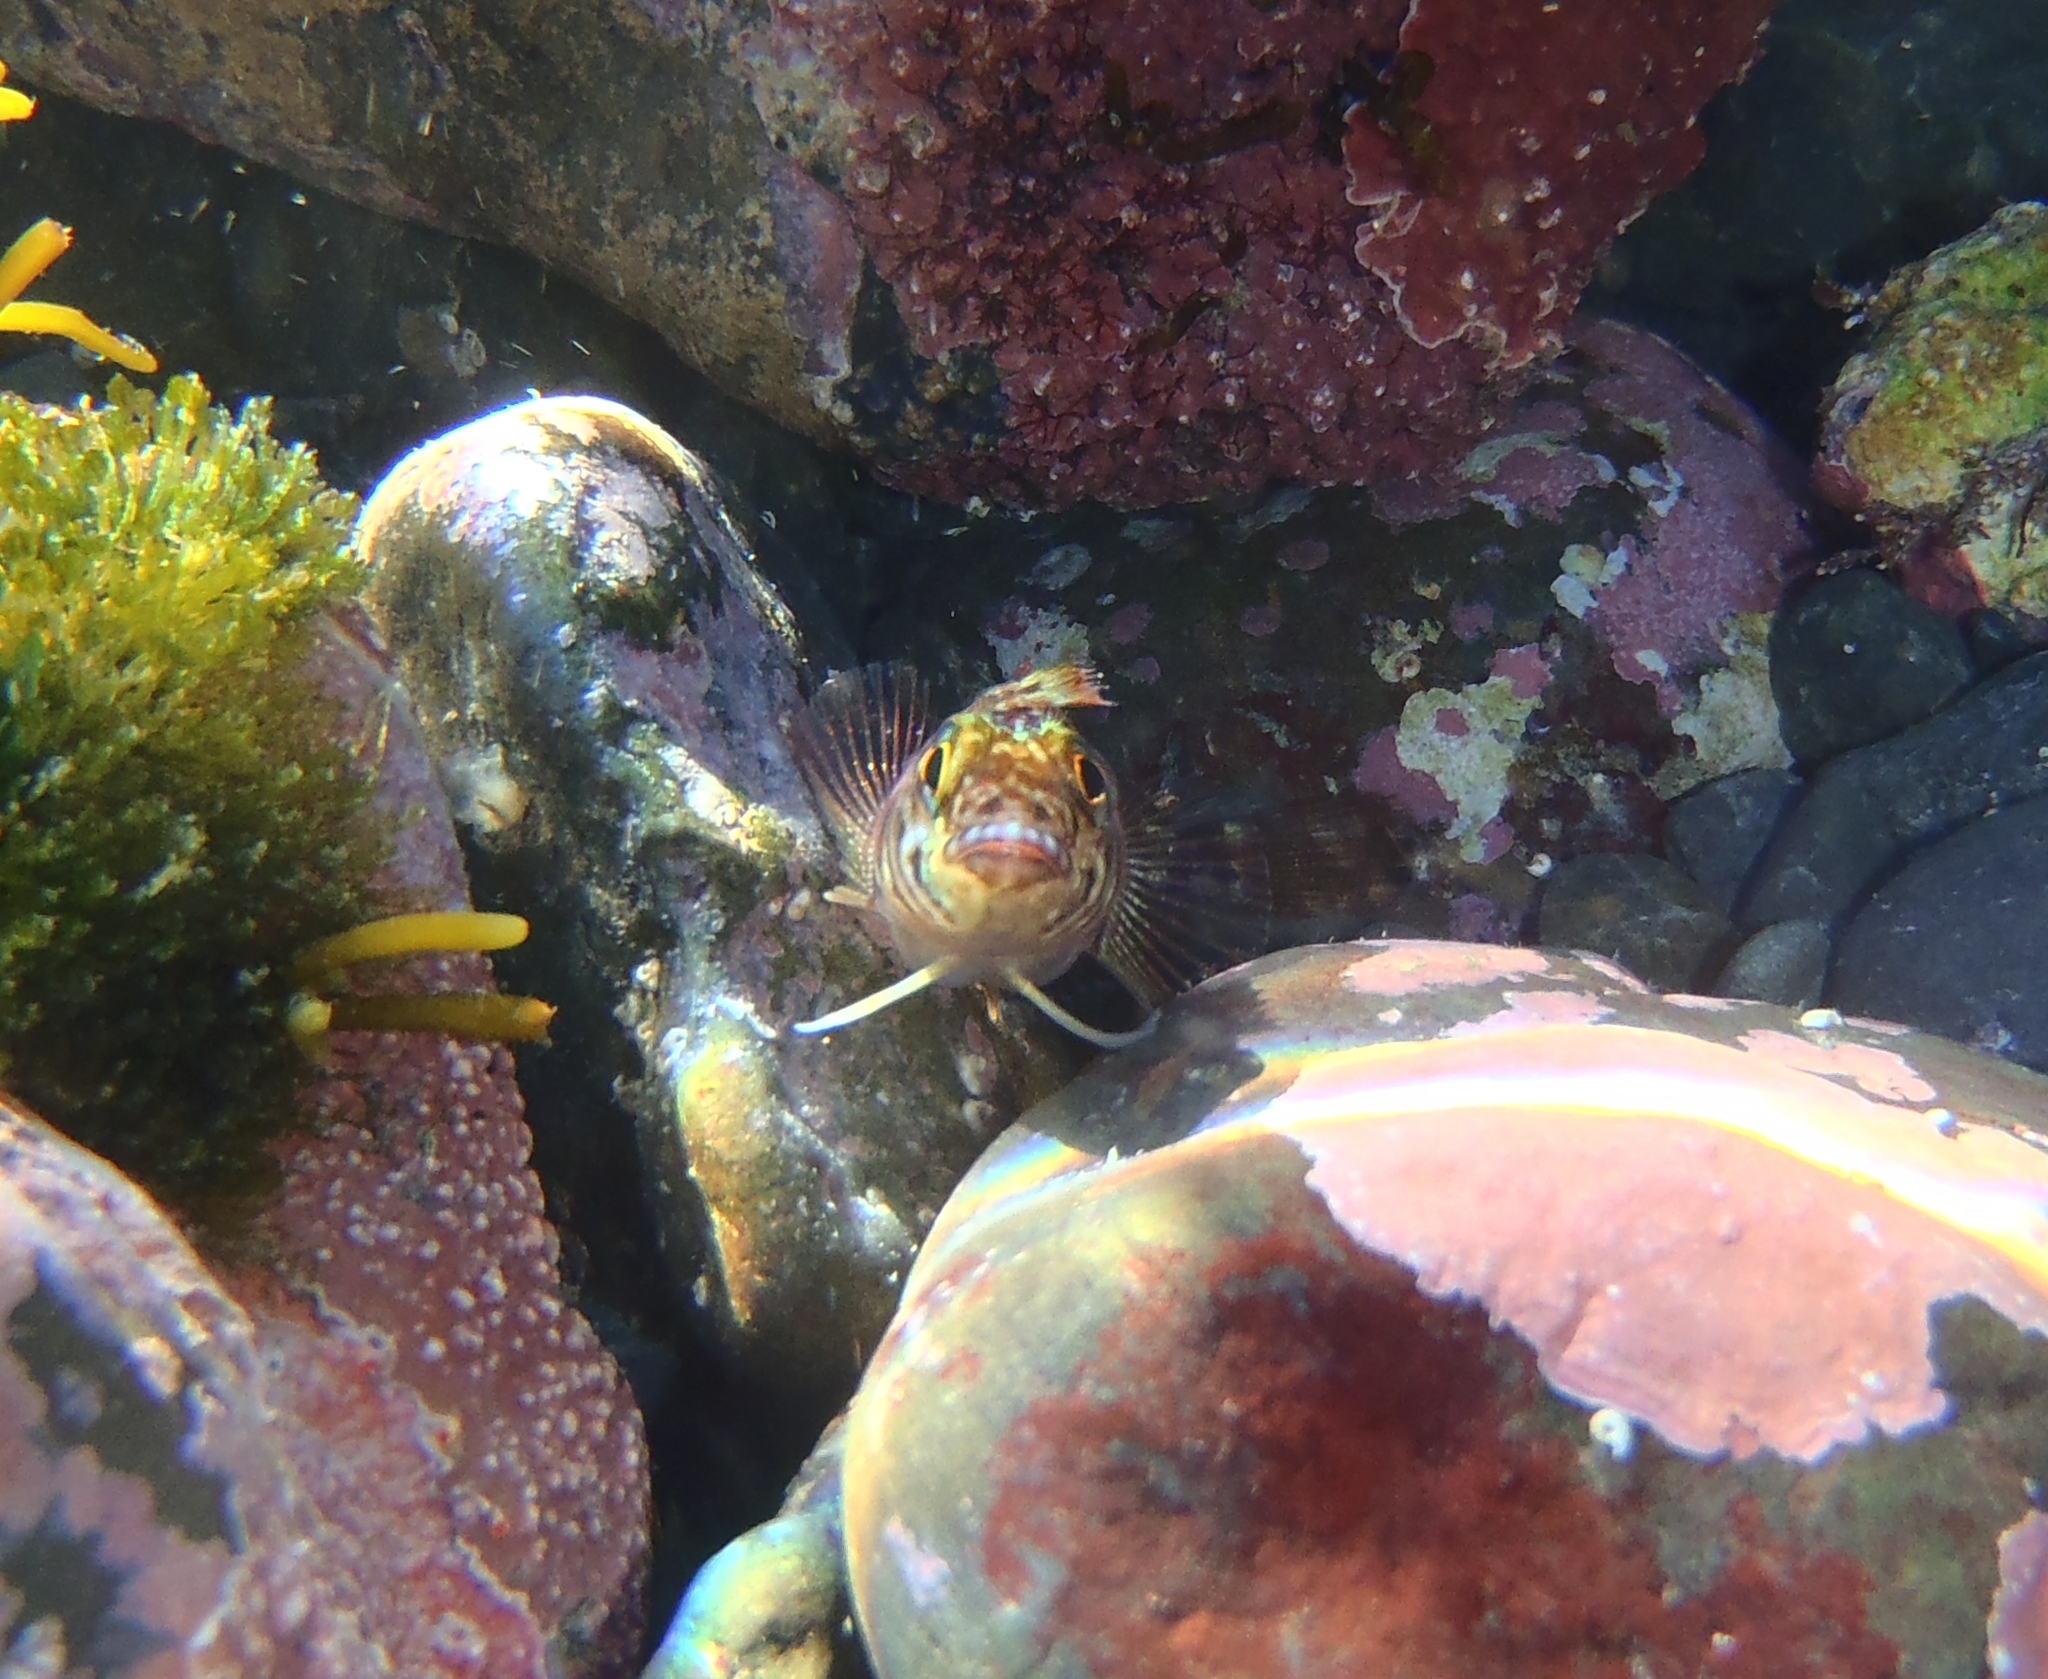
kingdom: Animalia
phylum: Chordata
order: Perciformes
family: Tripterygiidae
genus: Forsterygion
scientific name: Forsterygion varium
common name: Variable triplefin
